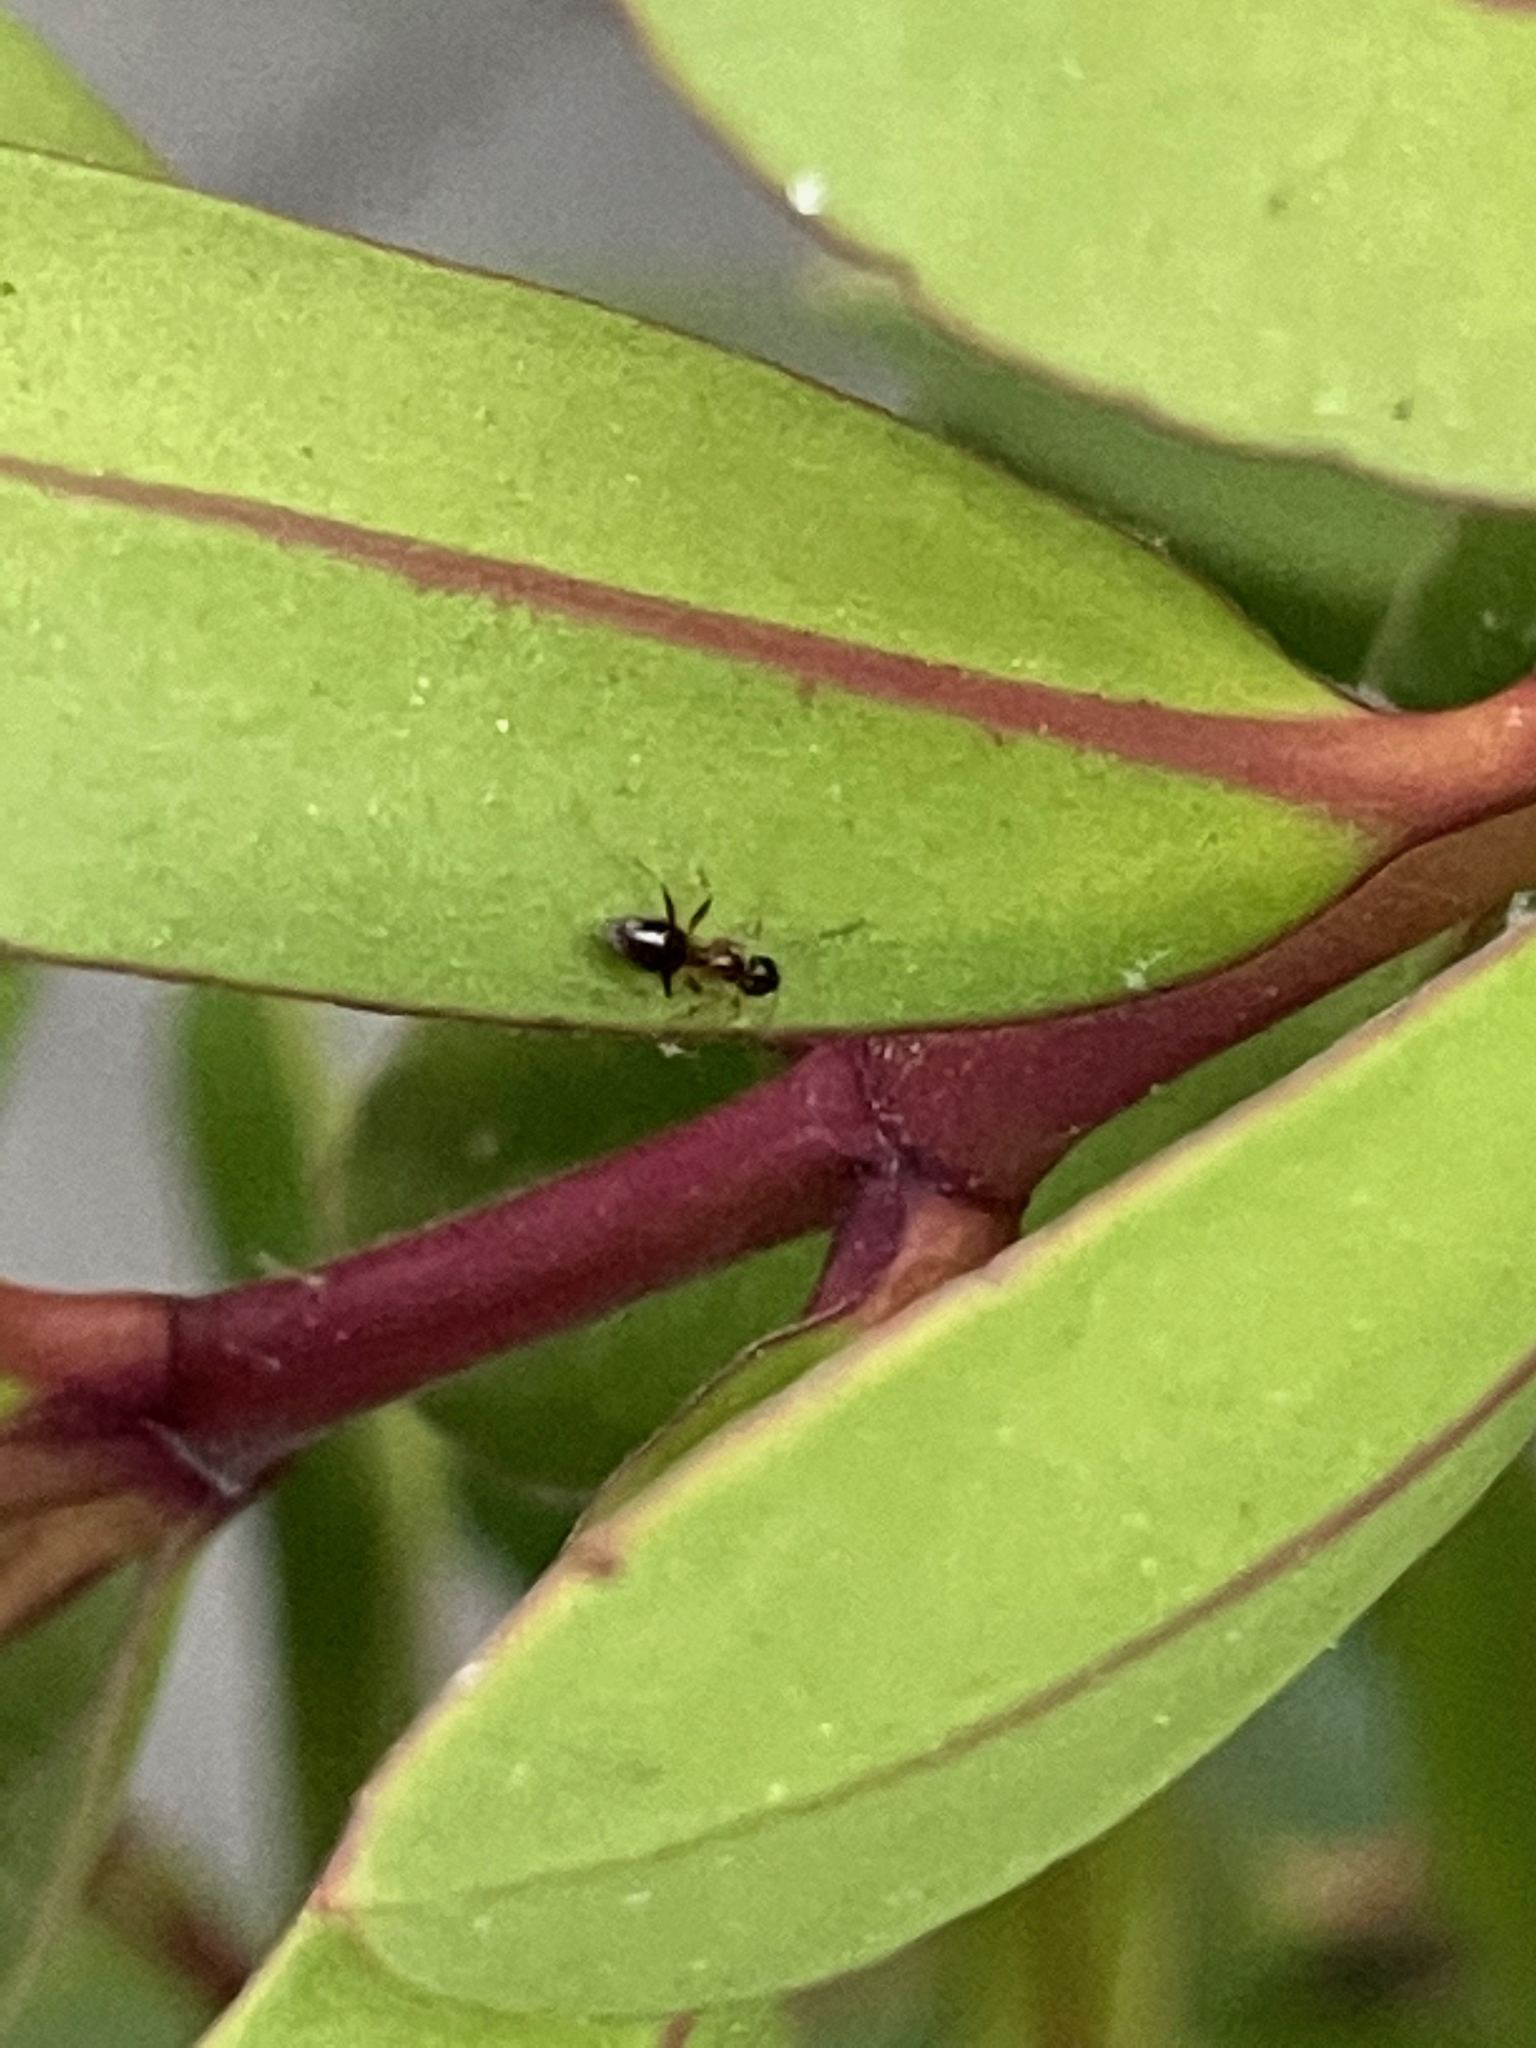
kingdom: Animalia
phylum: Arthropoda
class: Insecta
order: Hymenoptera
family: Formicidae
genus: Prenolepis
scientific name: Prenolepis imparis
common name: Small honey ant
